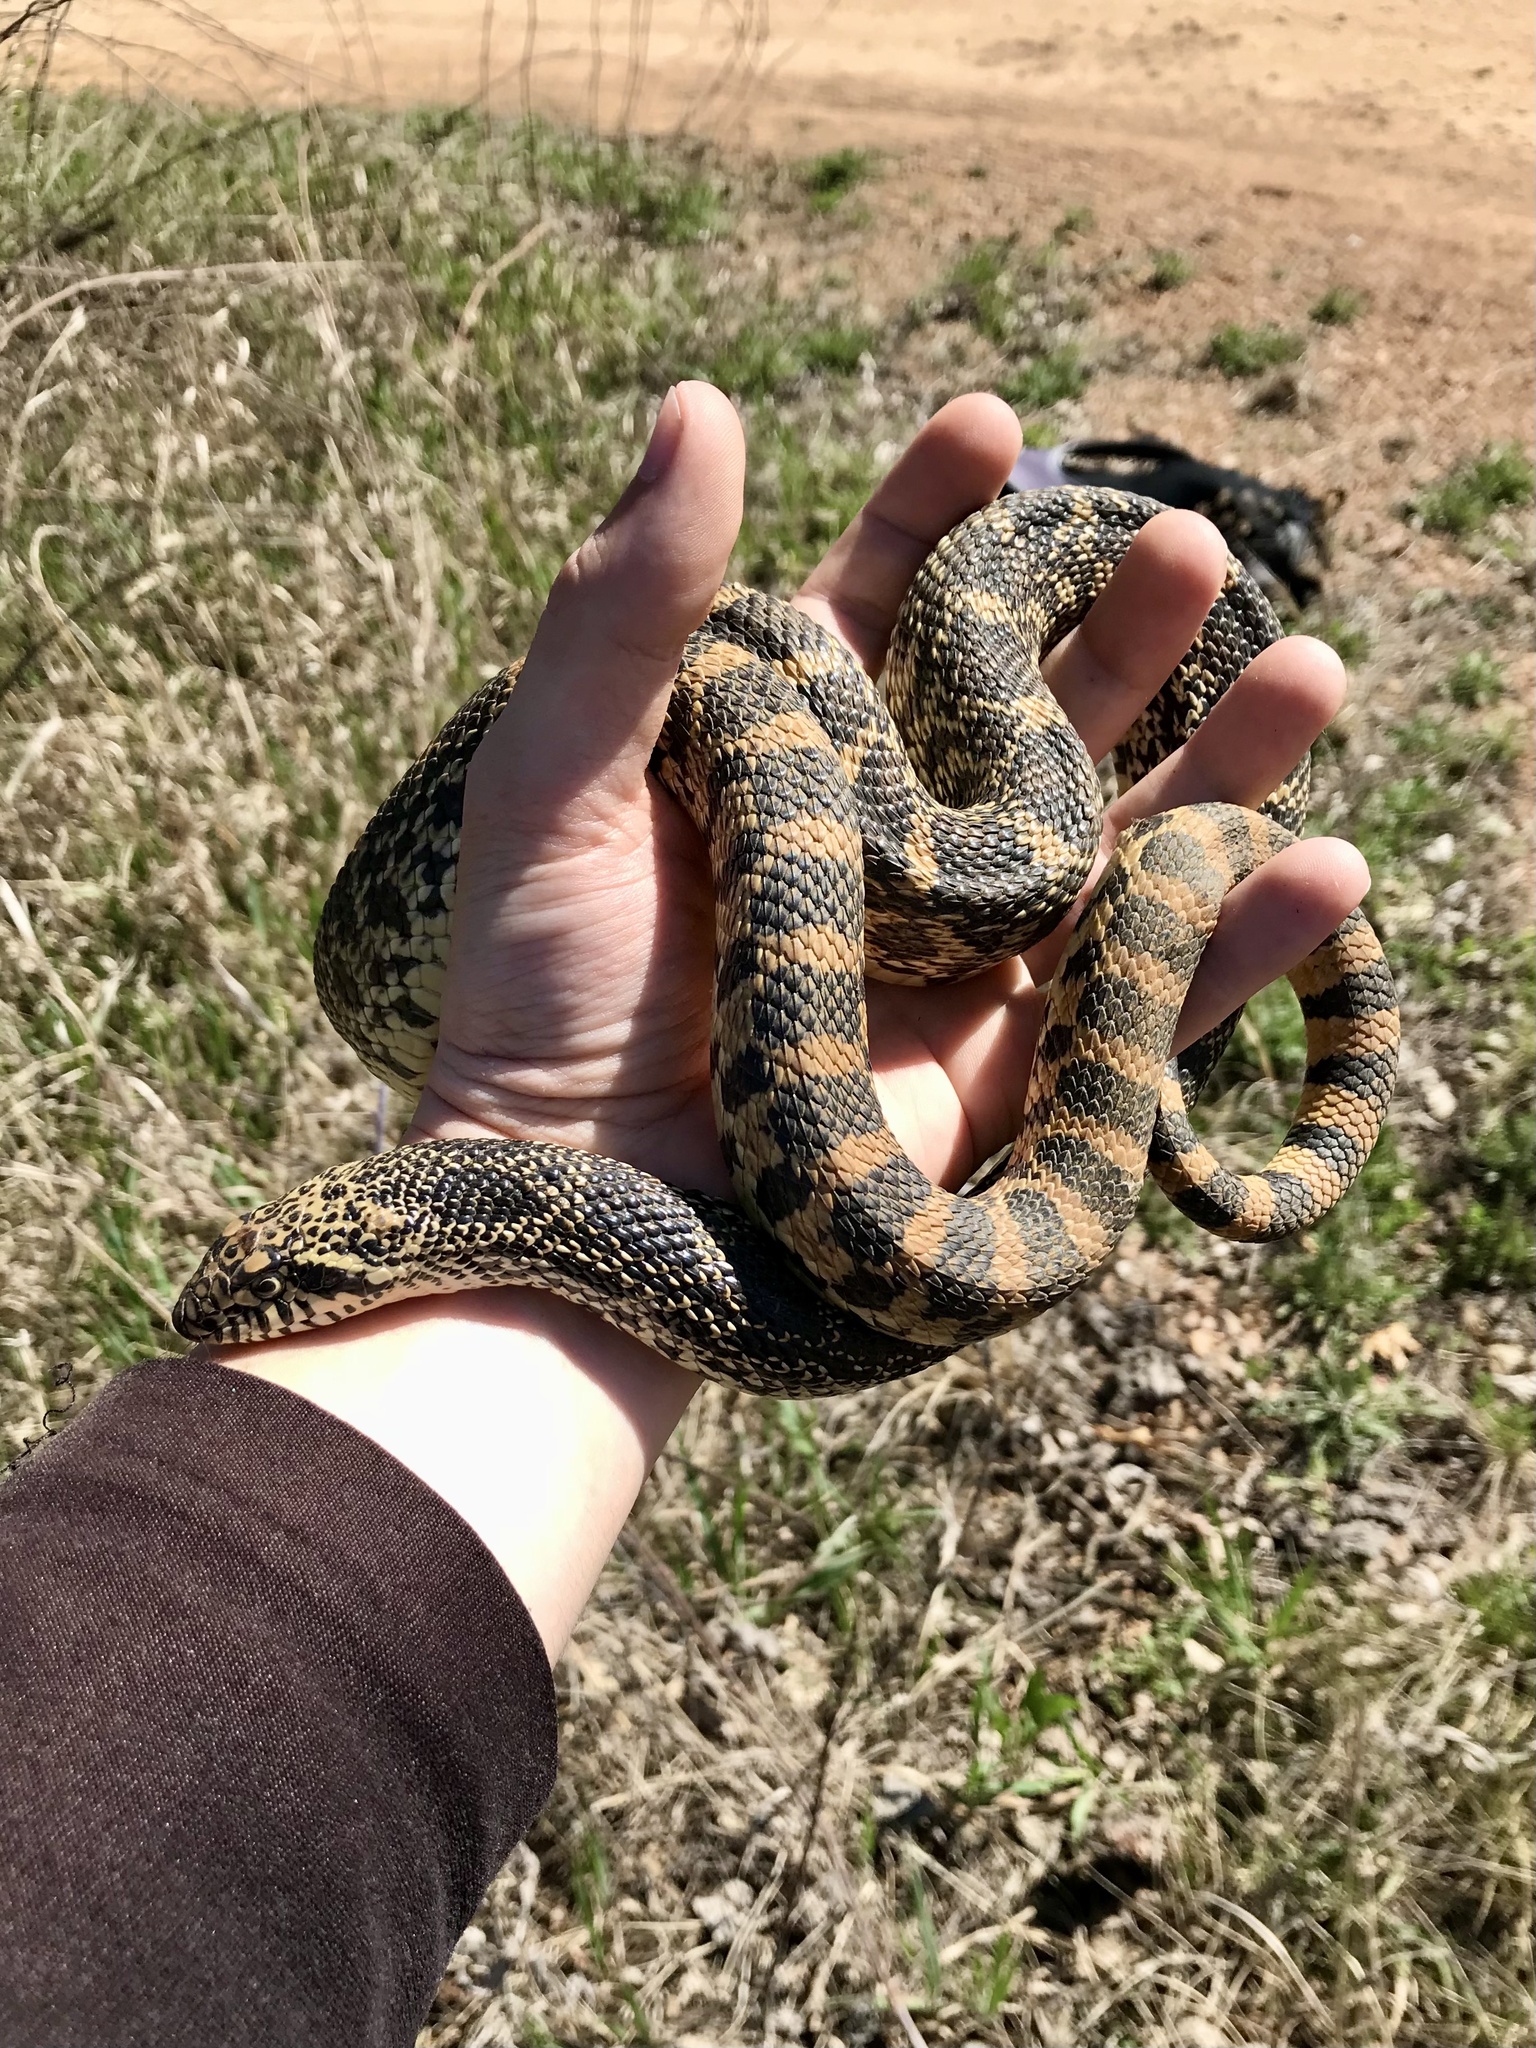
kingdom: Animalia
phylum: Chordata
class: Squamata
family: Colubridae
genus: Pituophis
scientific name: Pituophis catenifer
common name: Gopher snake
